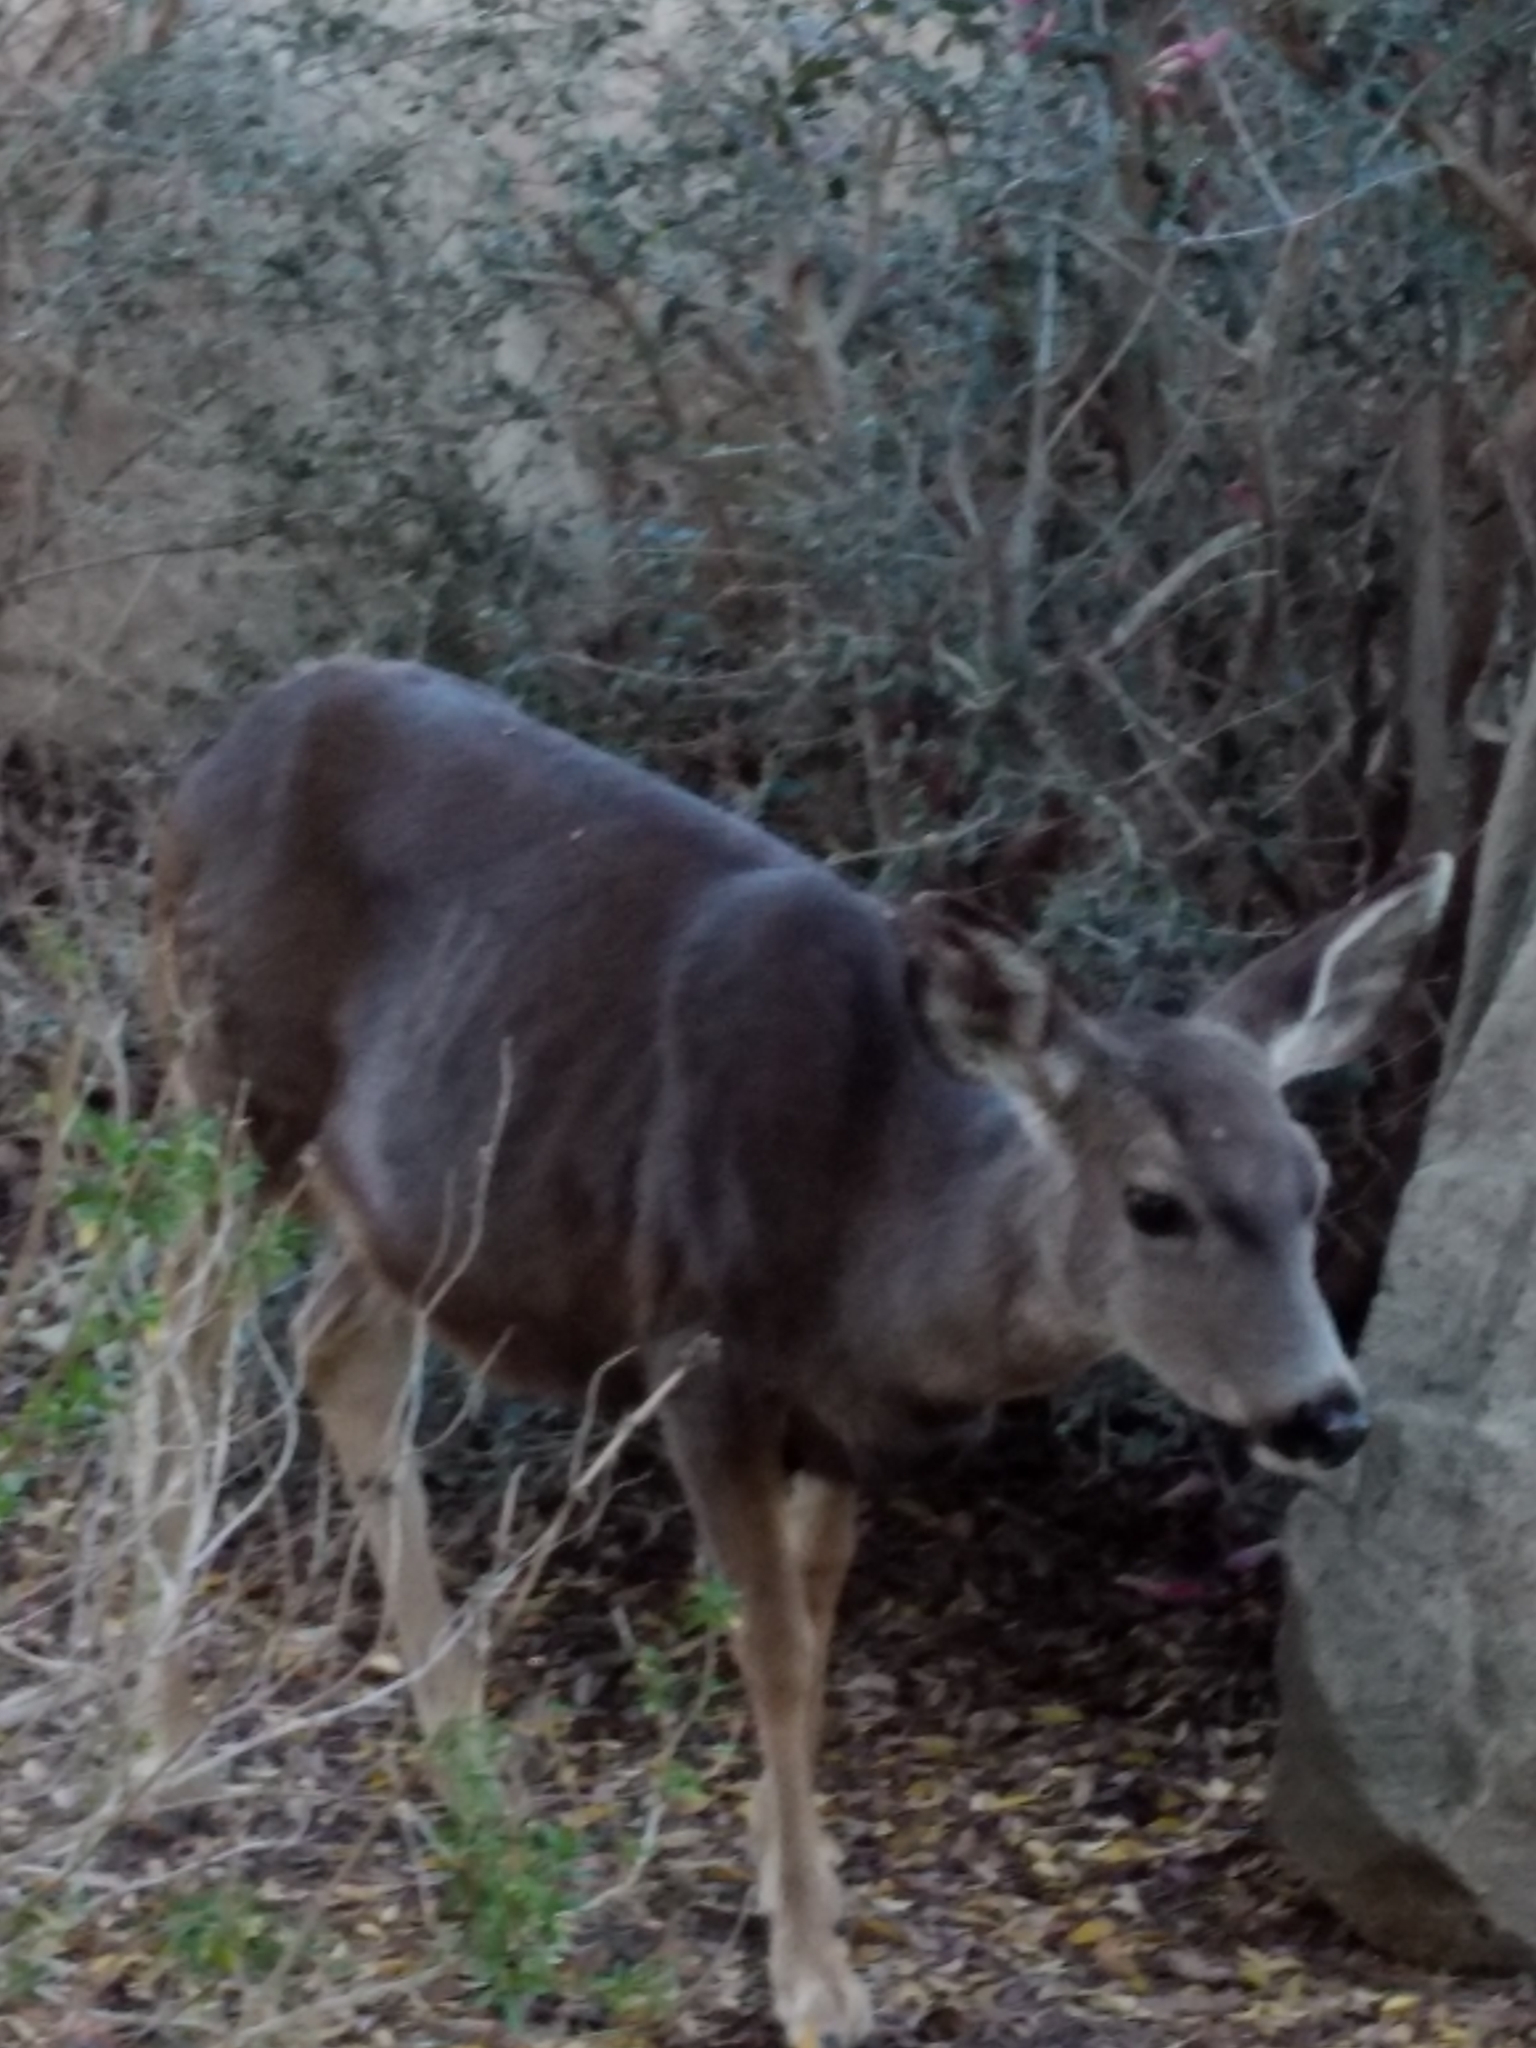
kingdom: Animalia
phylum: Chordata
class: Mammalia
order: Artiodactyla
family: Cervidae
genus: Odocoileus
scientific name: Odocoileus hemionus
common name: Mule deer
